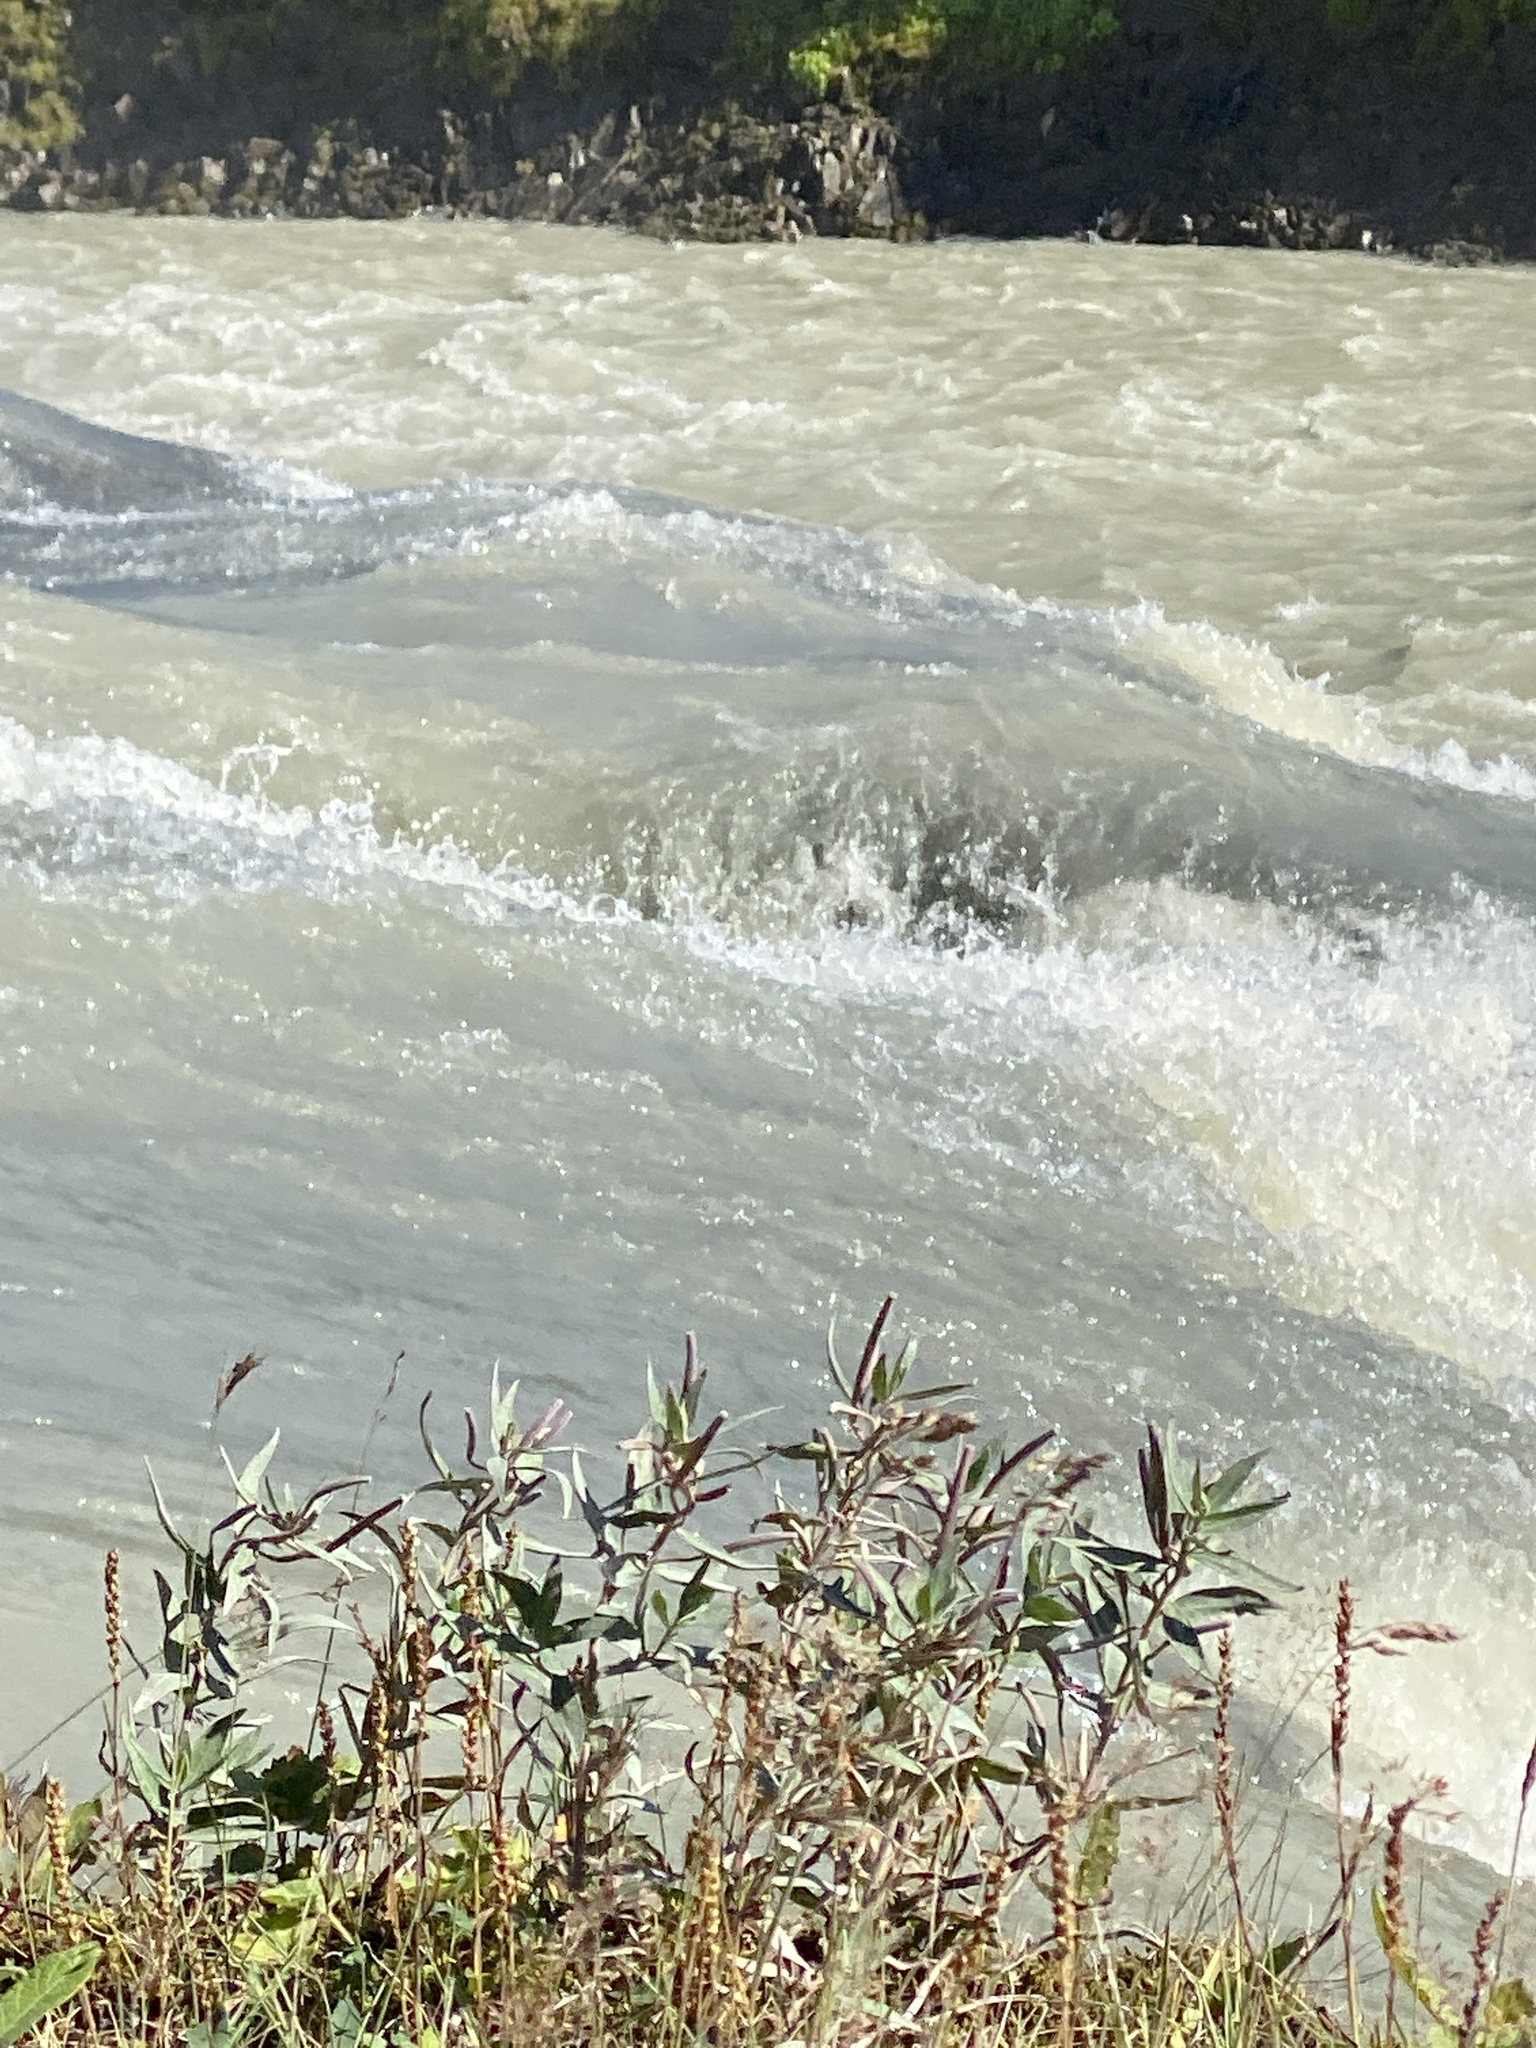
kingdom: Plantae
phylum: Tracheophyta
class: Magnoliopsida
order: Myrtales
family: Onagraceae
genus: Chamaenerion
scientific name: Chamaenerion latifolium
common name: Dwarf fireweed
